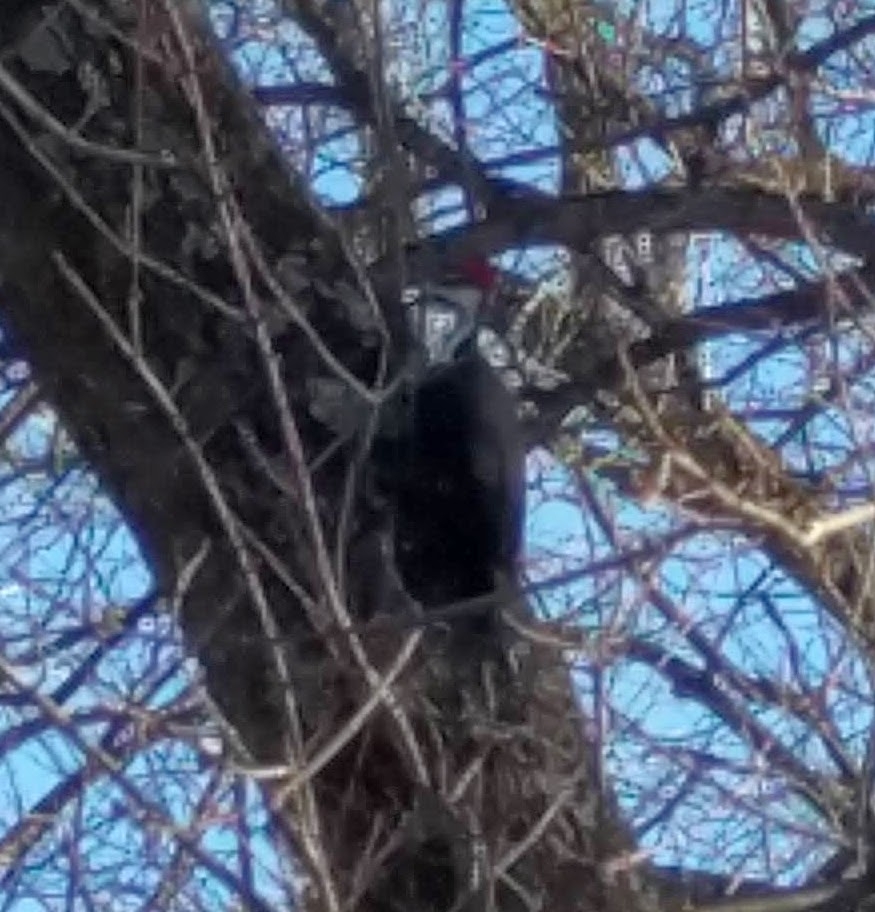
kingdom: Animalia
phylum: Chordata
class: Aves
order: Piciformes
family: Picidae
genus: Dryocopus
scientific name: Dryocopus pileatus
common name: Pileated woodpecker
